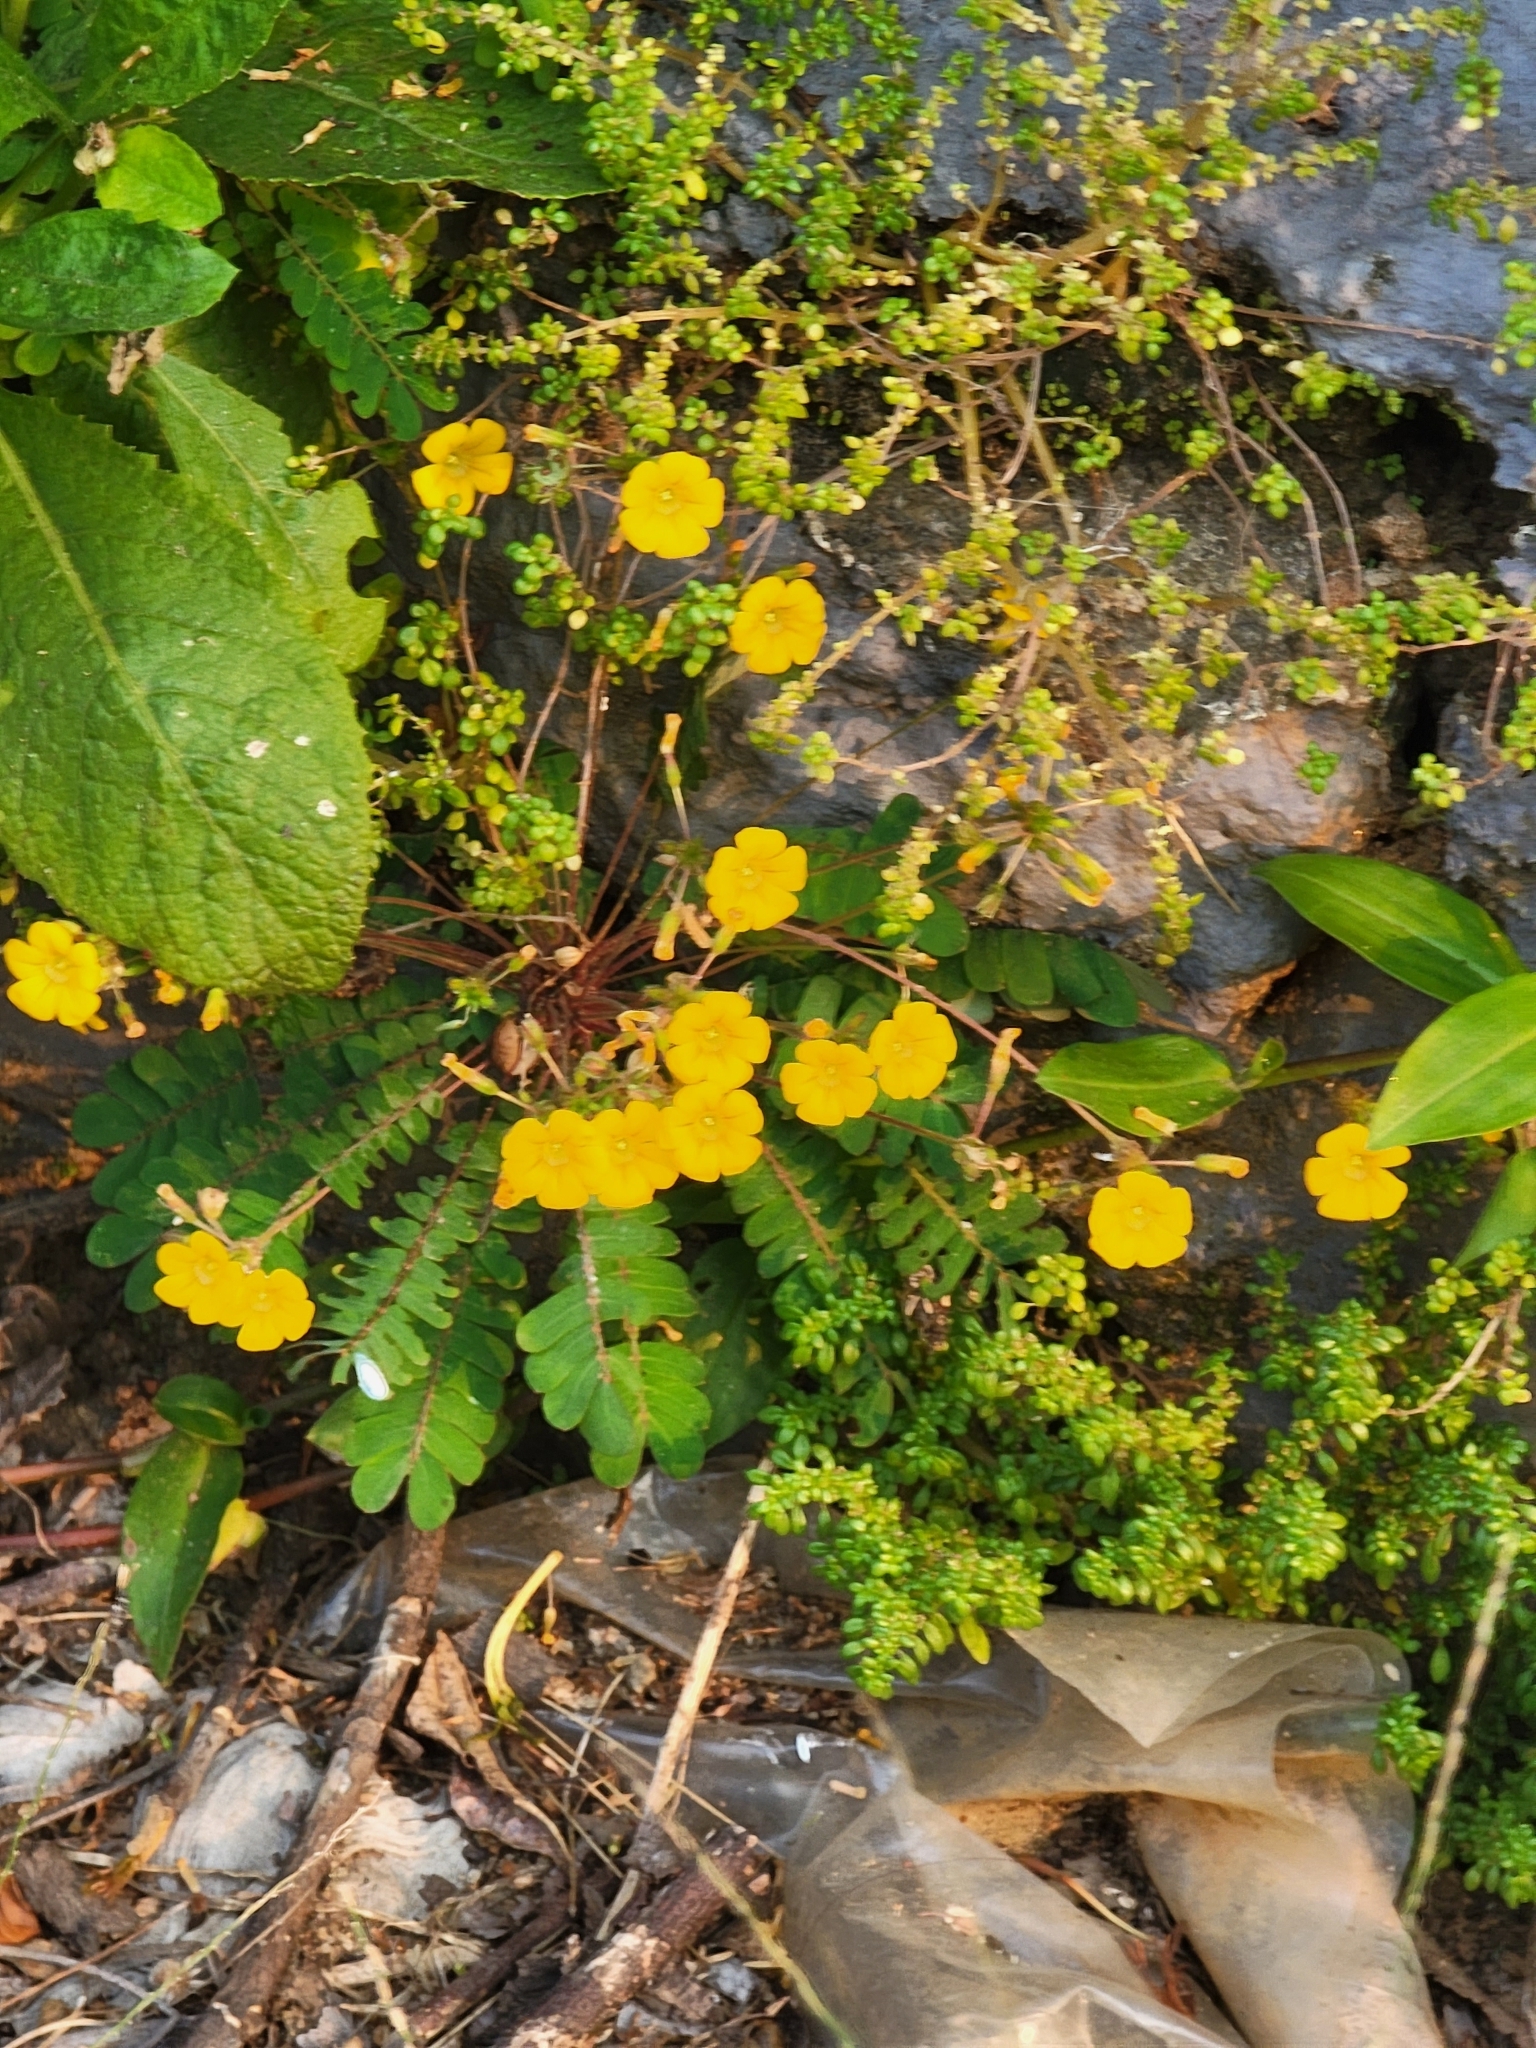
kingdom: Plantae
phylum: Tracheophyta
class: Magnoliopsida
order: Oxalidales
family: Oxalidaceae
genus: Biophytum
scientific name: Biophytum sensitivum
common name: Lifeplant
